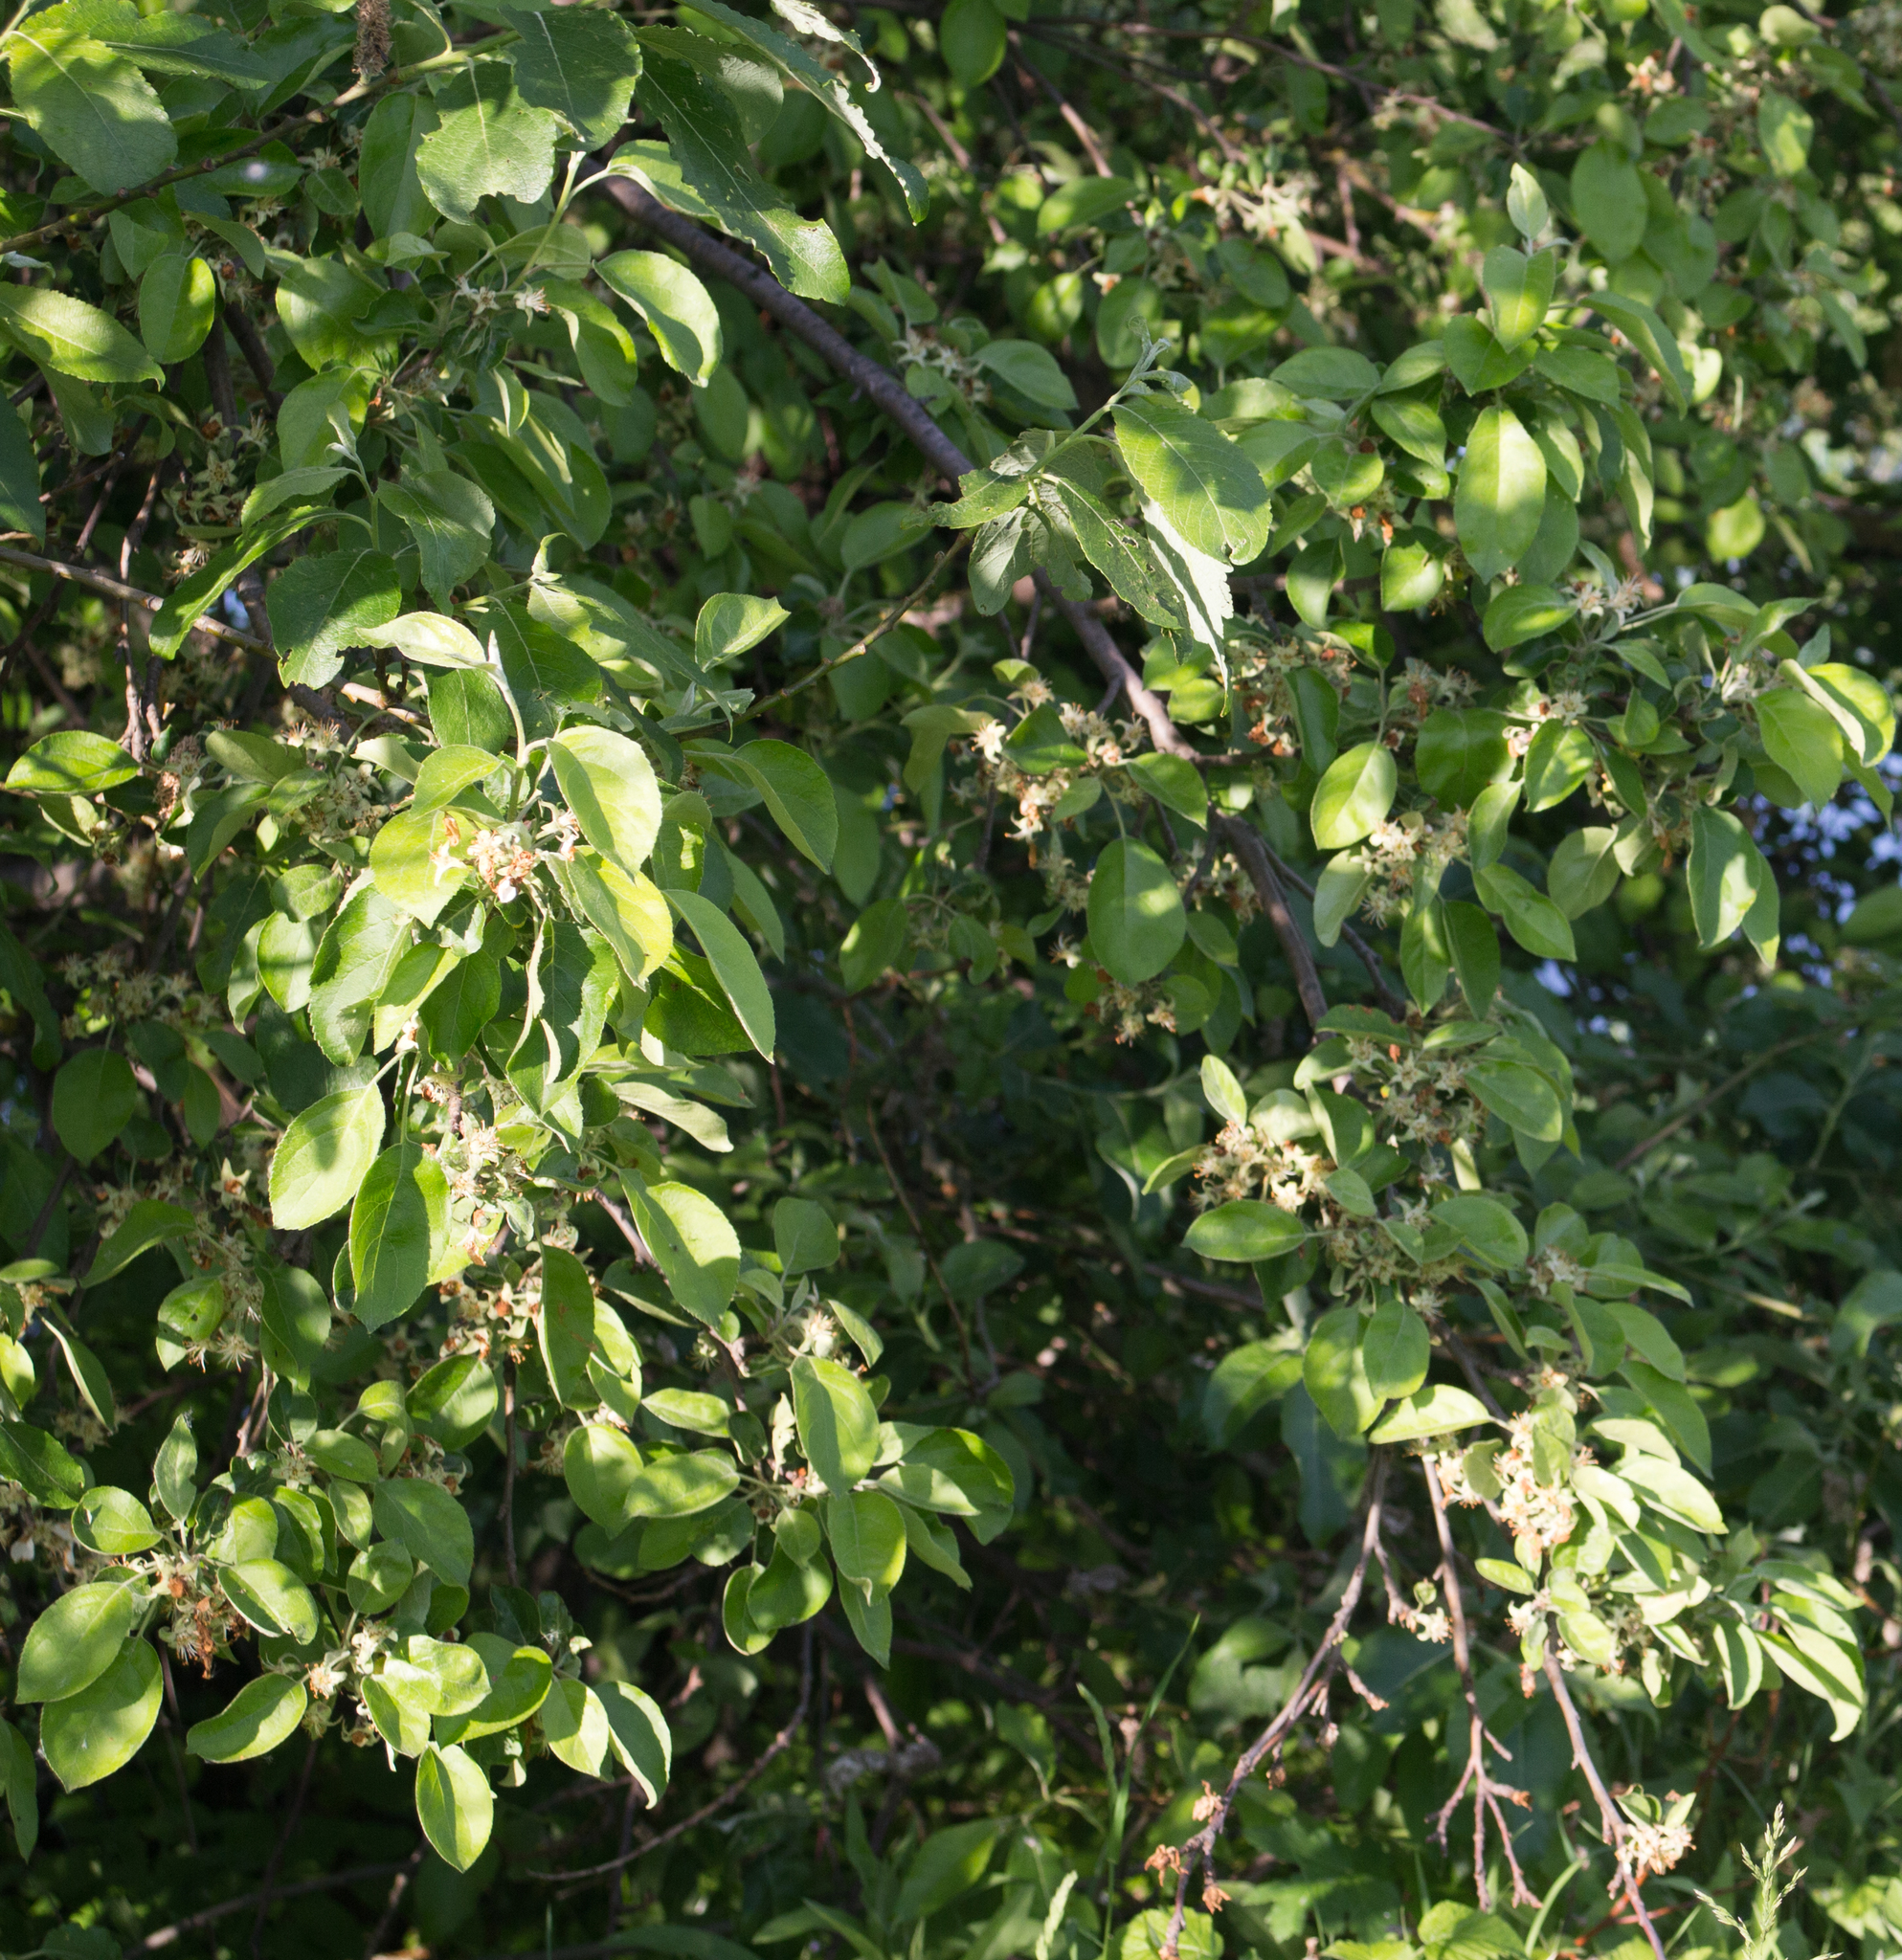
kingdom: Plantae
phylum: Tracheophyta
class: Magnoliopsida
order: Rosales
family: Rosaceae
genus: Malus
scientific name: Malus domestica
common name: Apple
